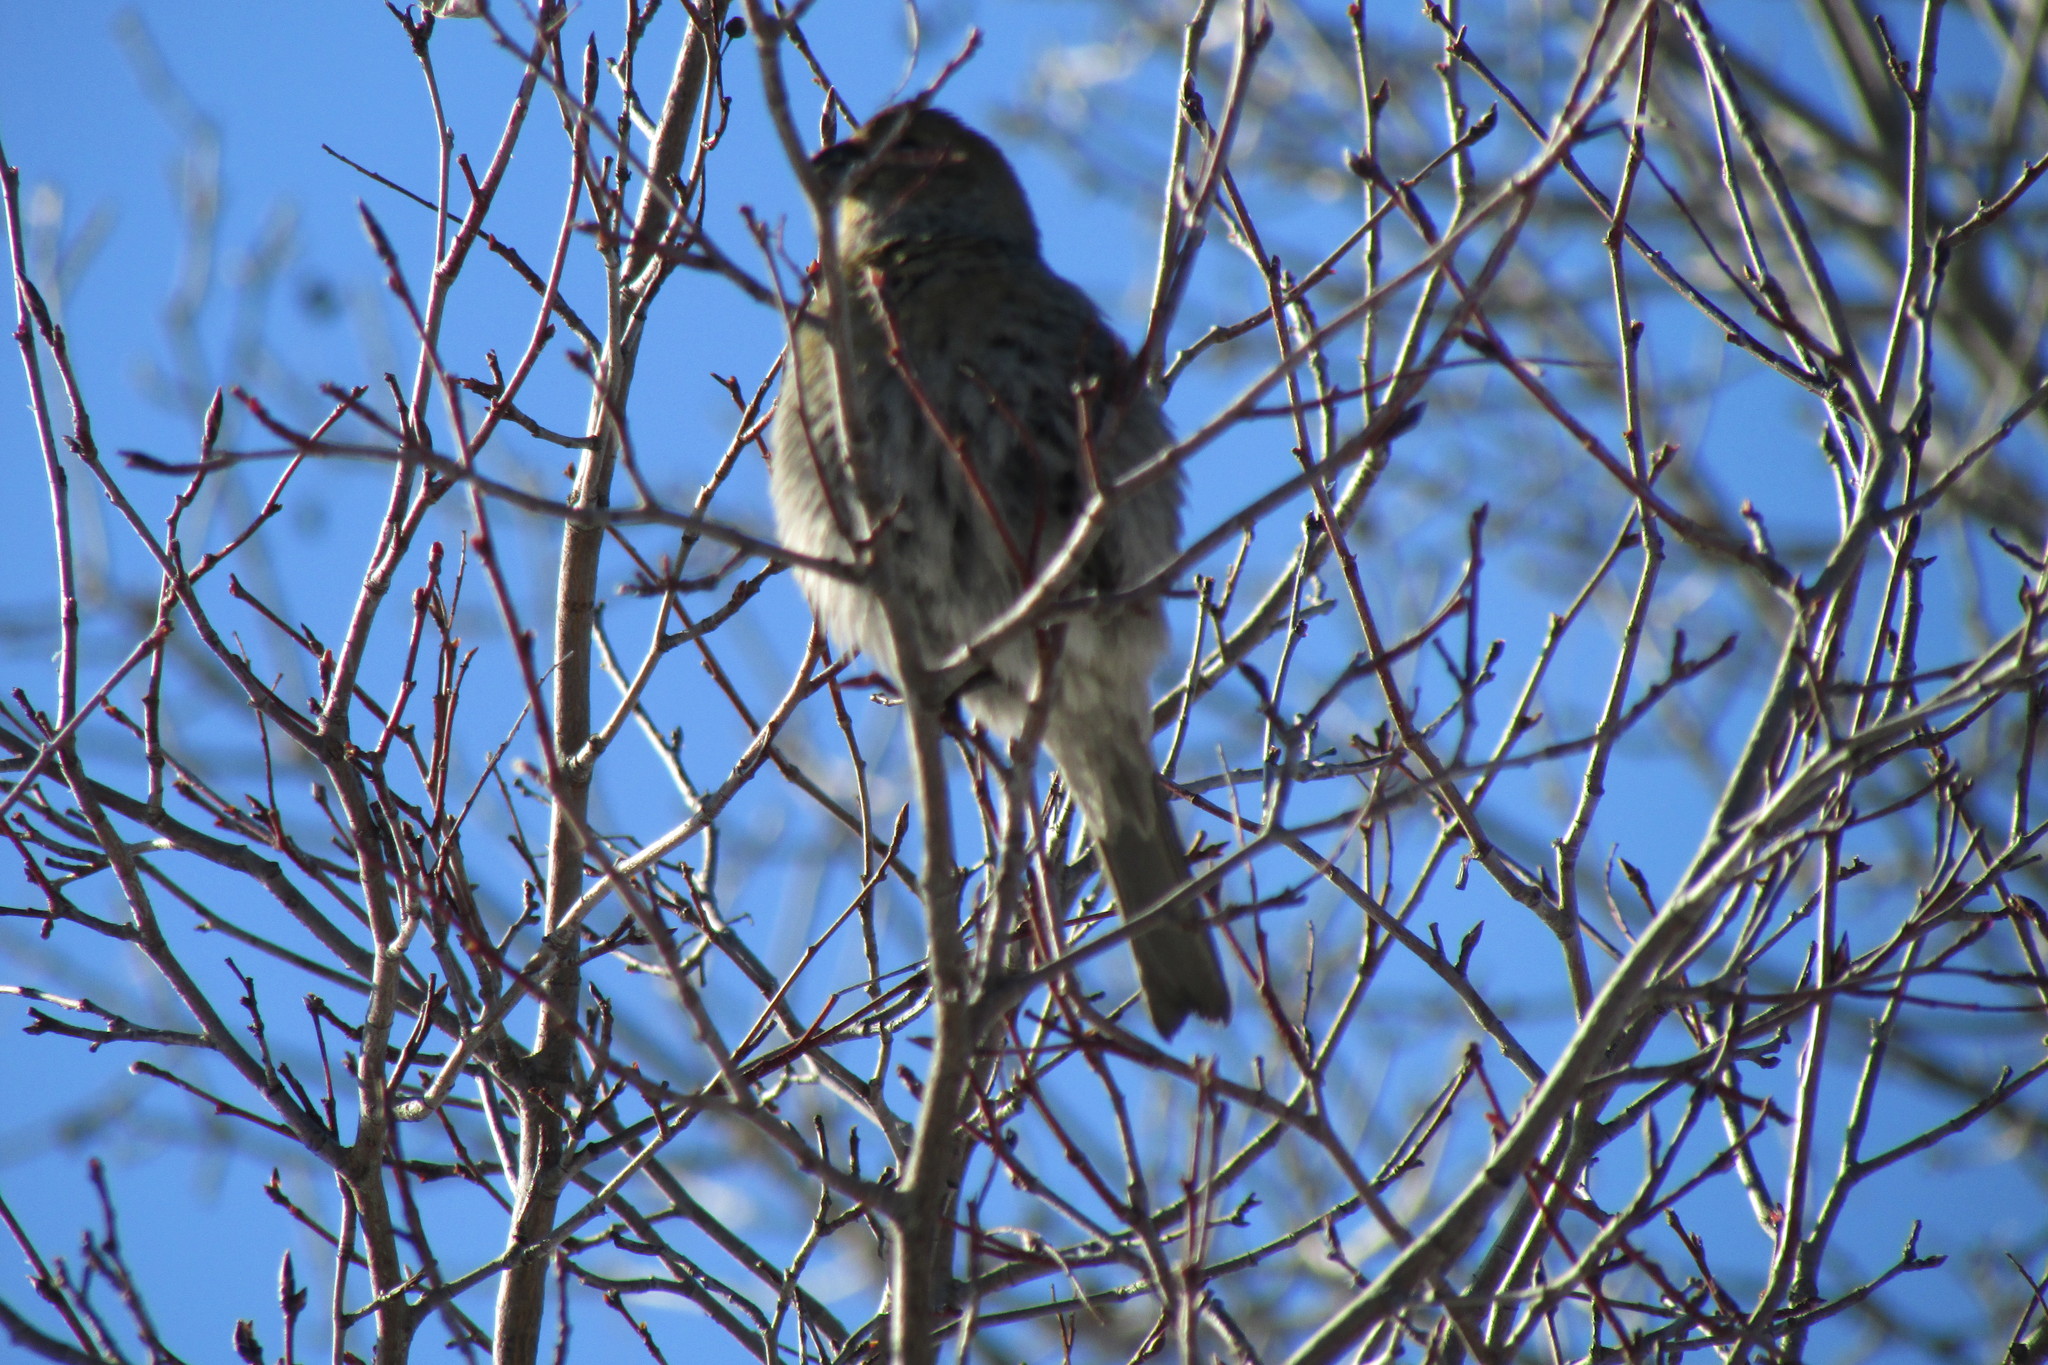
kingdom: Animalia
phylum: Chordata
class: Aves
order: Passeriformes
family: Fringillidae
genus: Pinicola
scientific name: Pinicola enucleator
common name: Pine grosbeak
